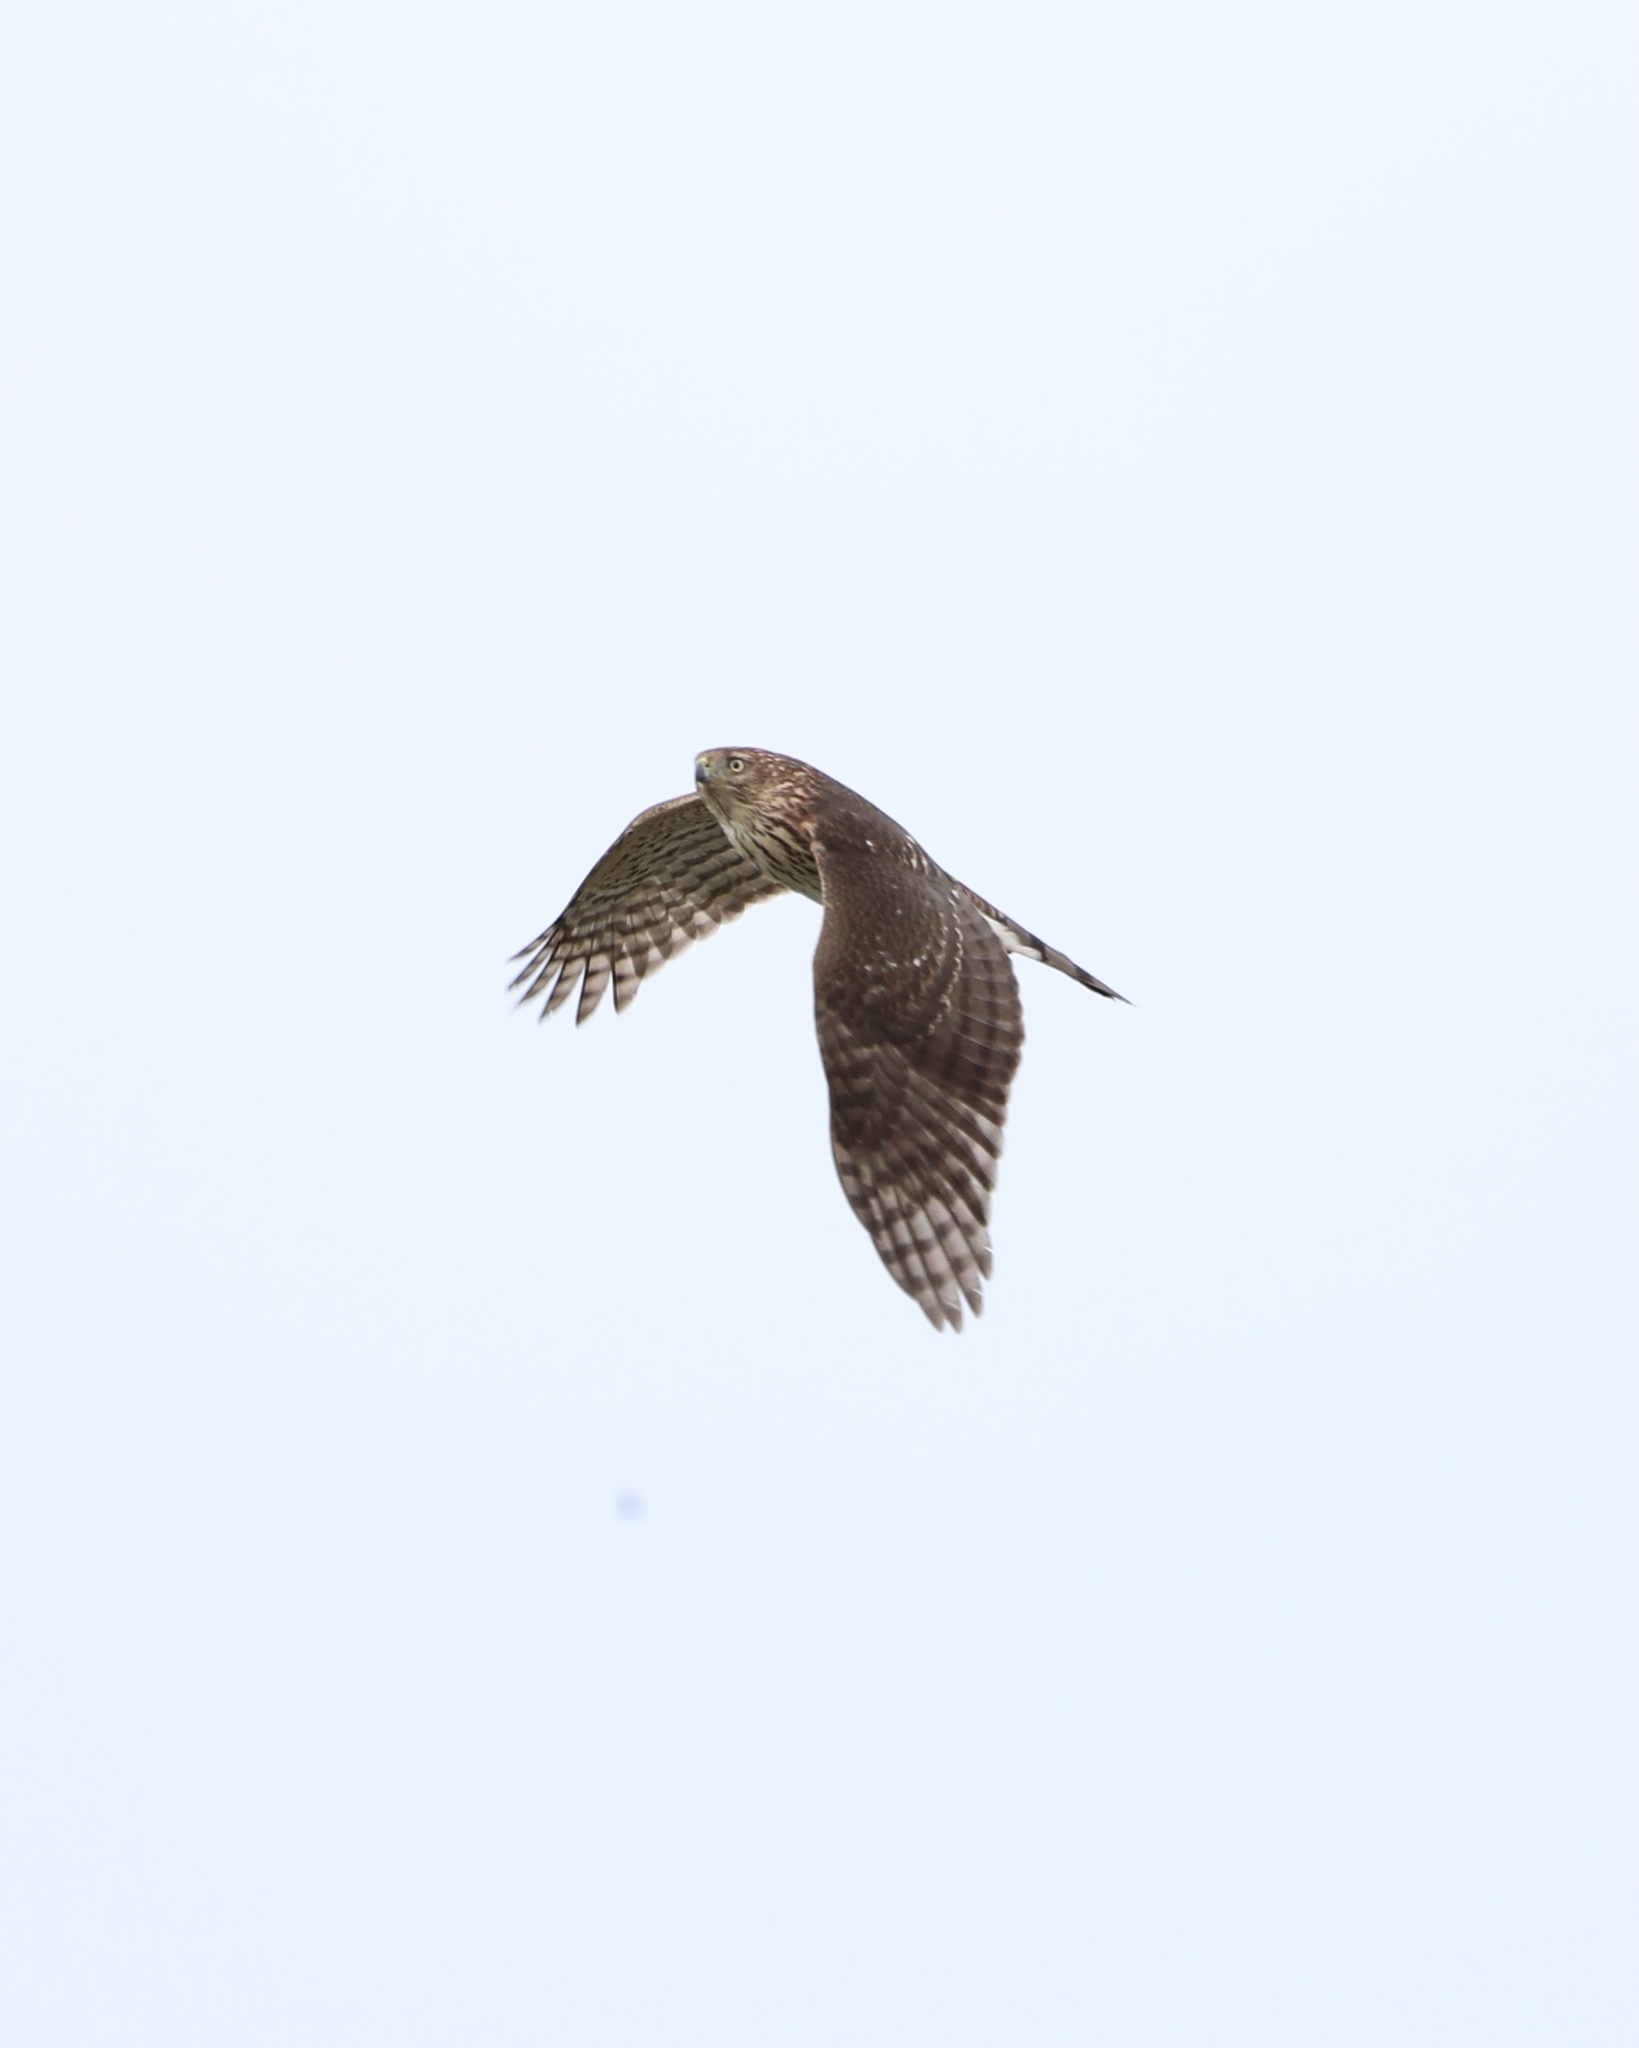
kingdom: Animalia
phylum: Chordata
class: Aves
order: Accipitriformes
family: Accipitridae
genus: Accipiter
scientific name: Accipiter cooperii
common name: Cooper's hawk
